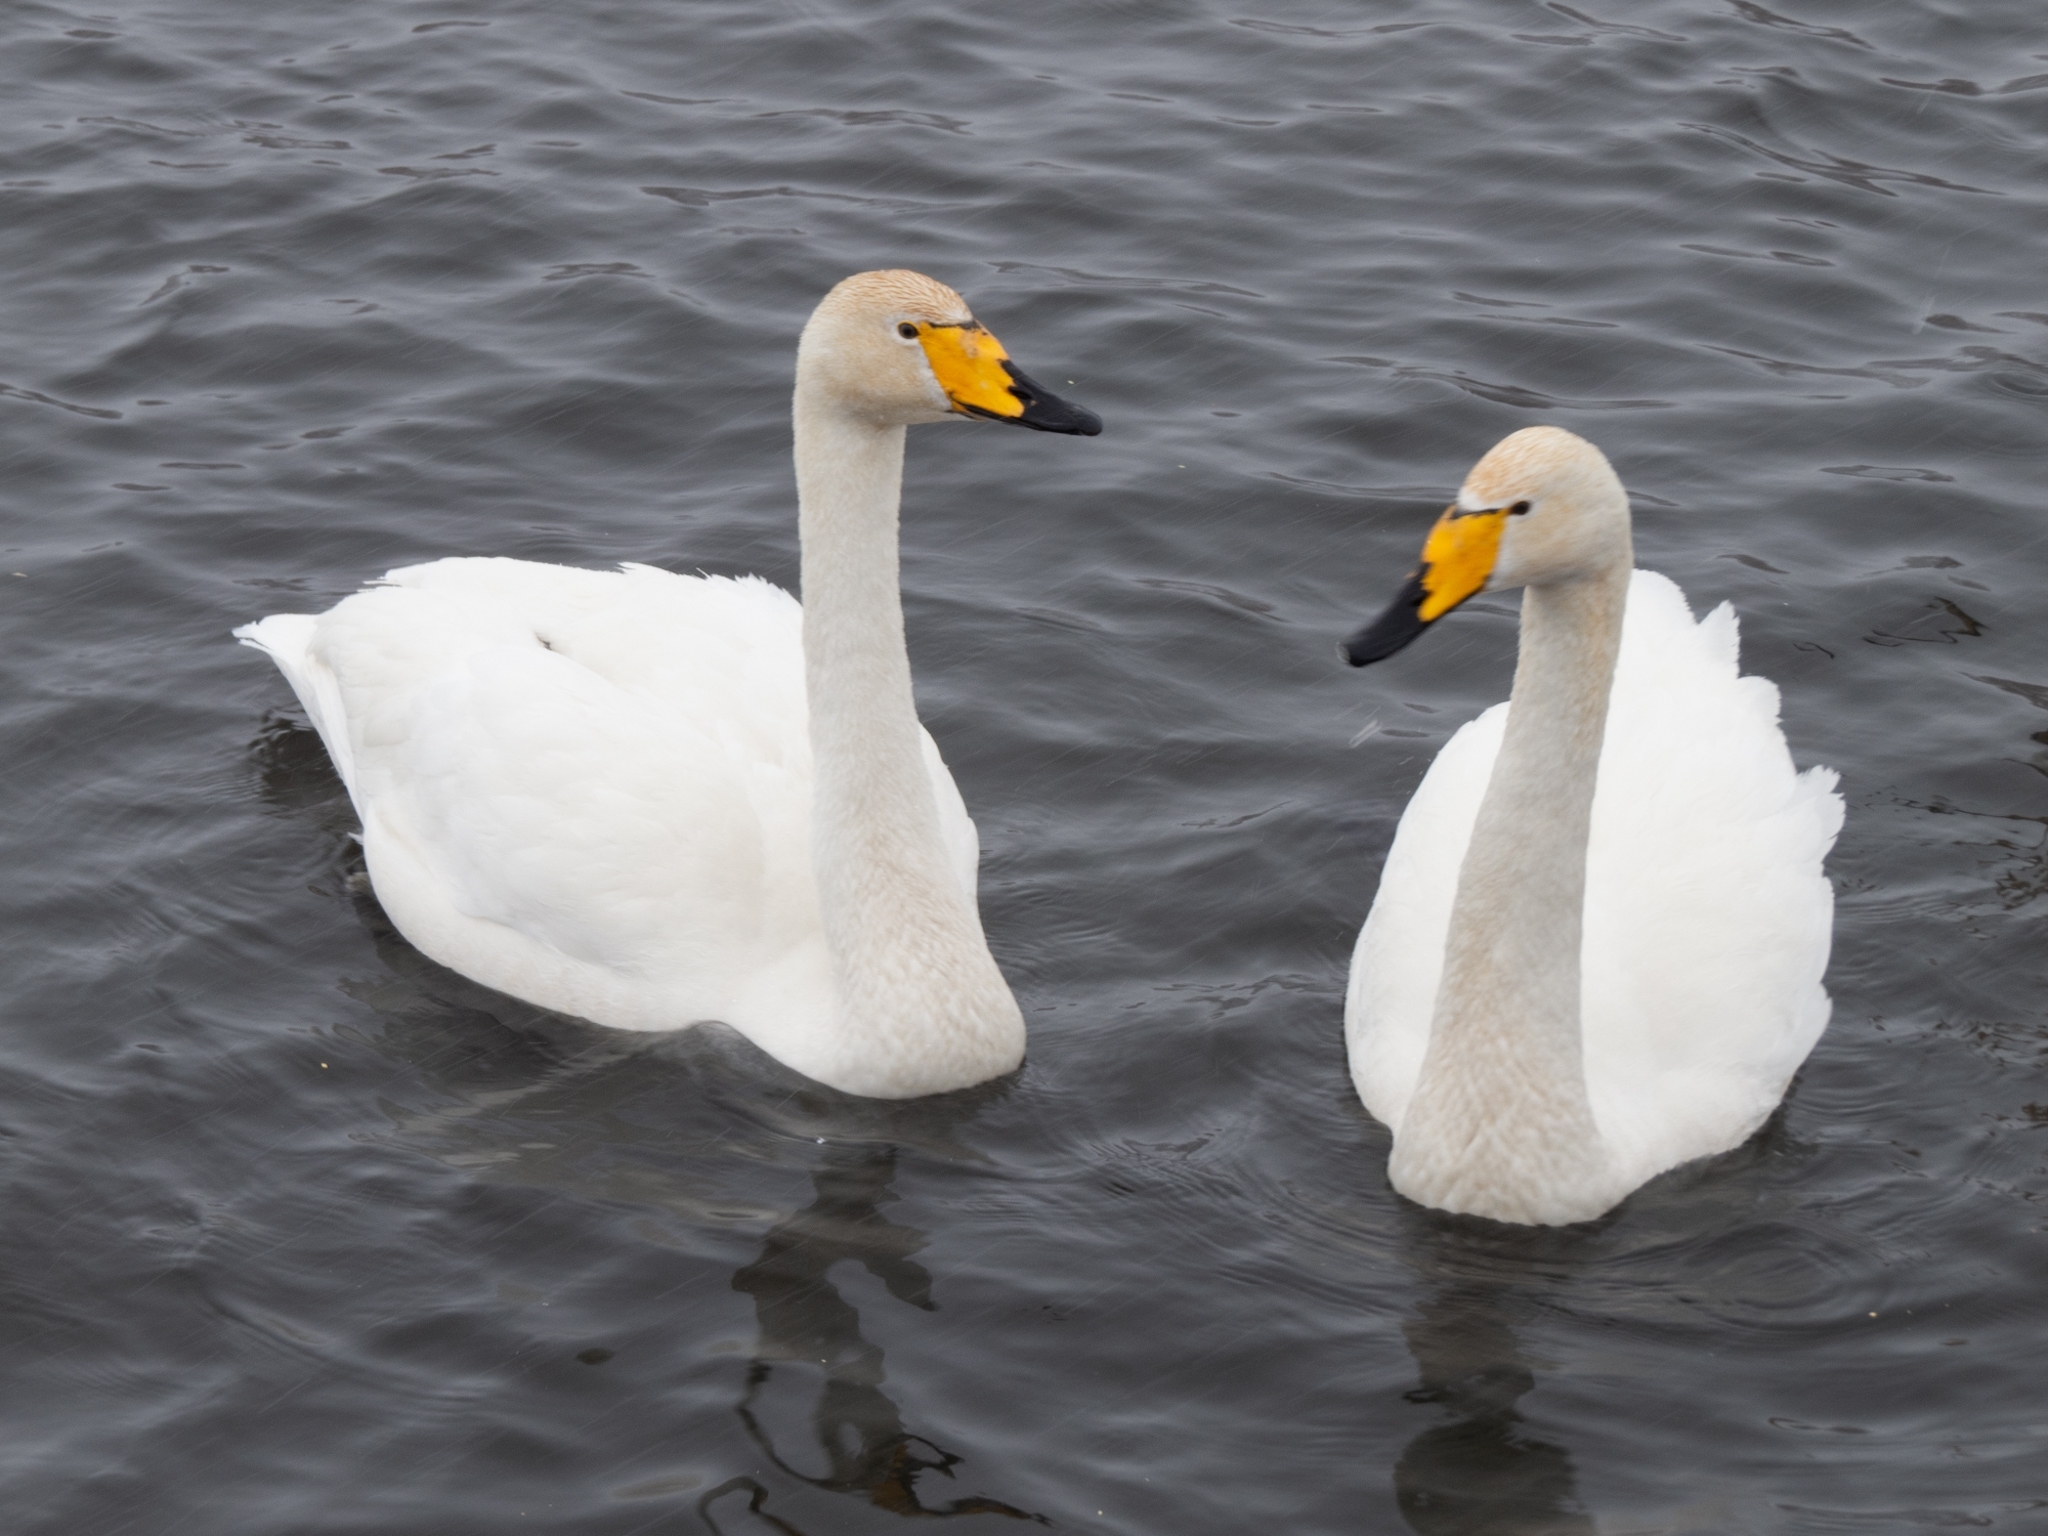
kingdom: Animalia
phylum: Chordata
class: Aves
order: Anseriformes
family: Anatidae
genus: Cygnus
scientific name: Cygnus cygnus
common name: Whooper swan
